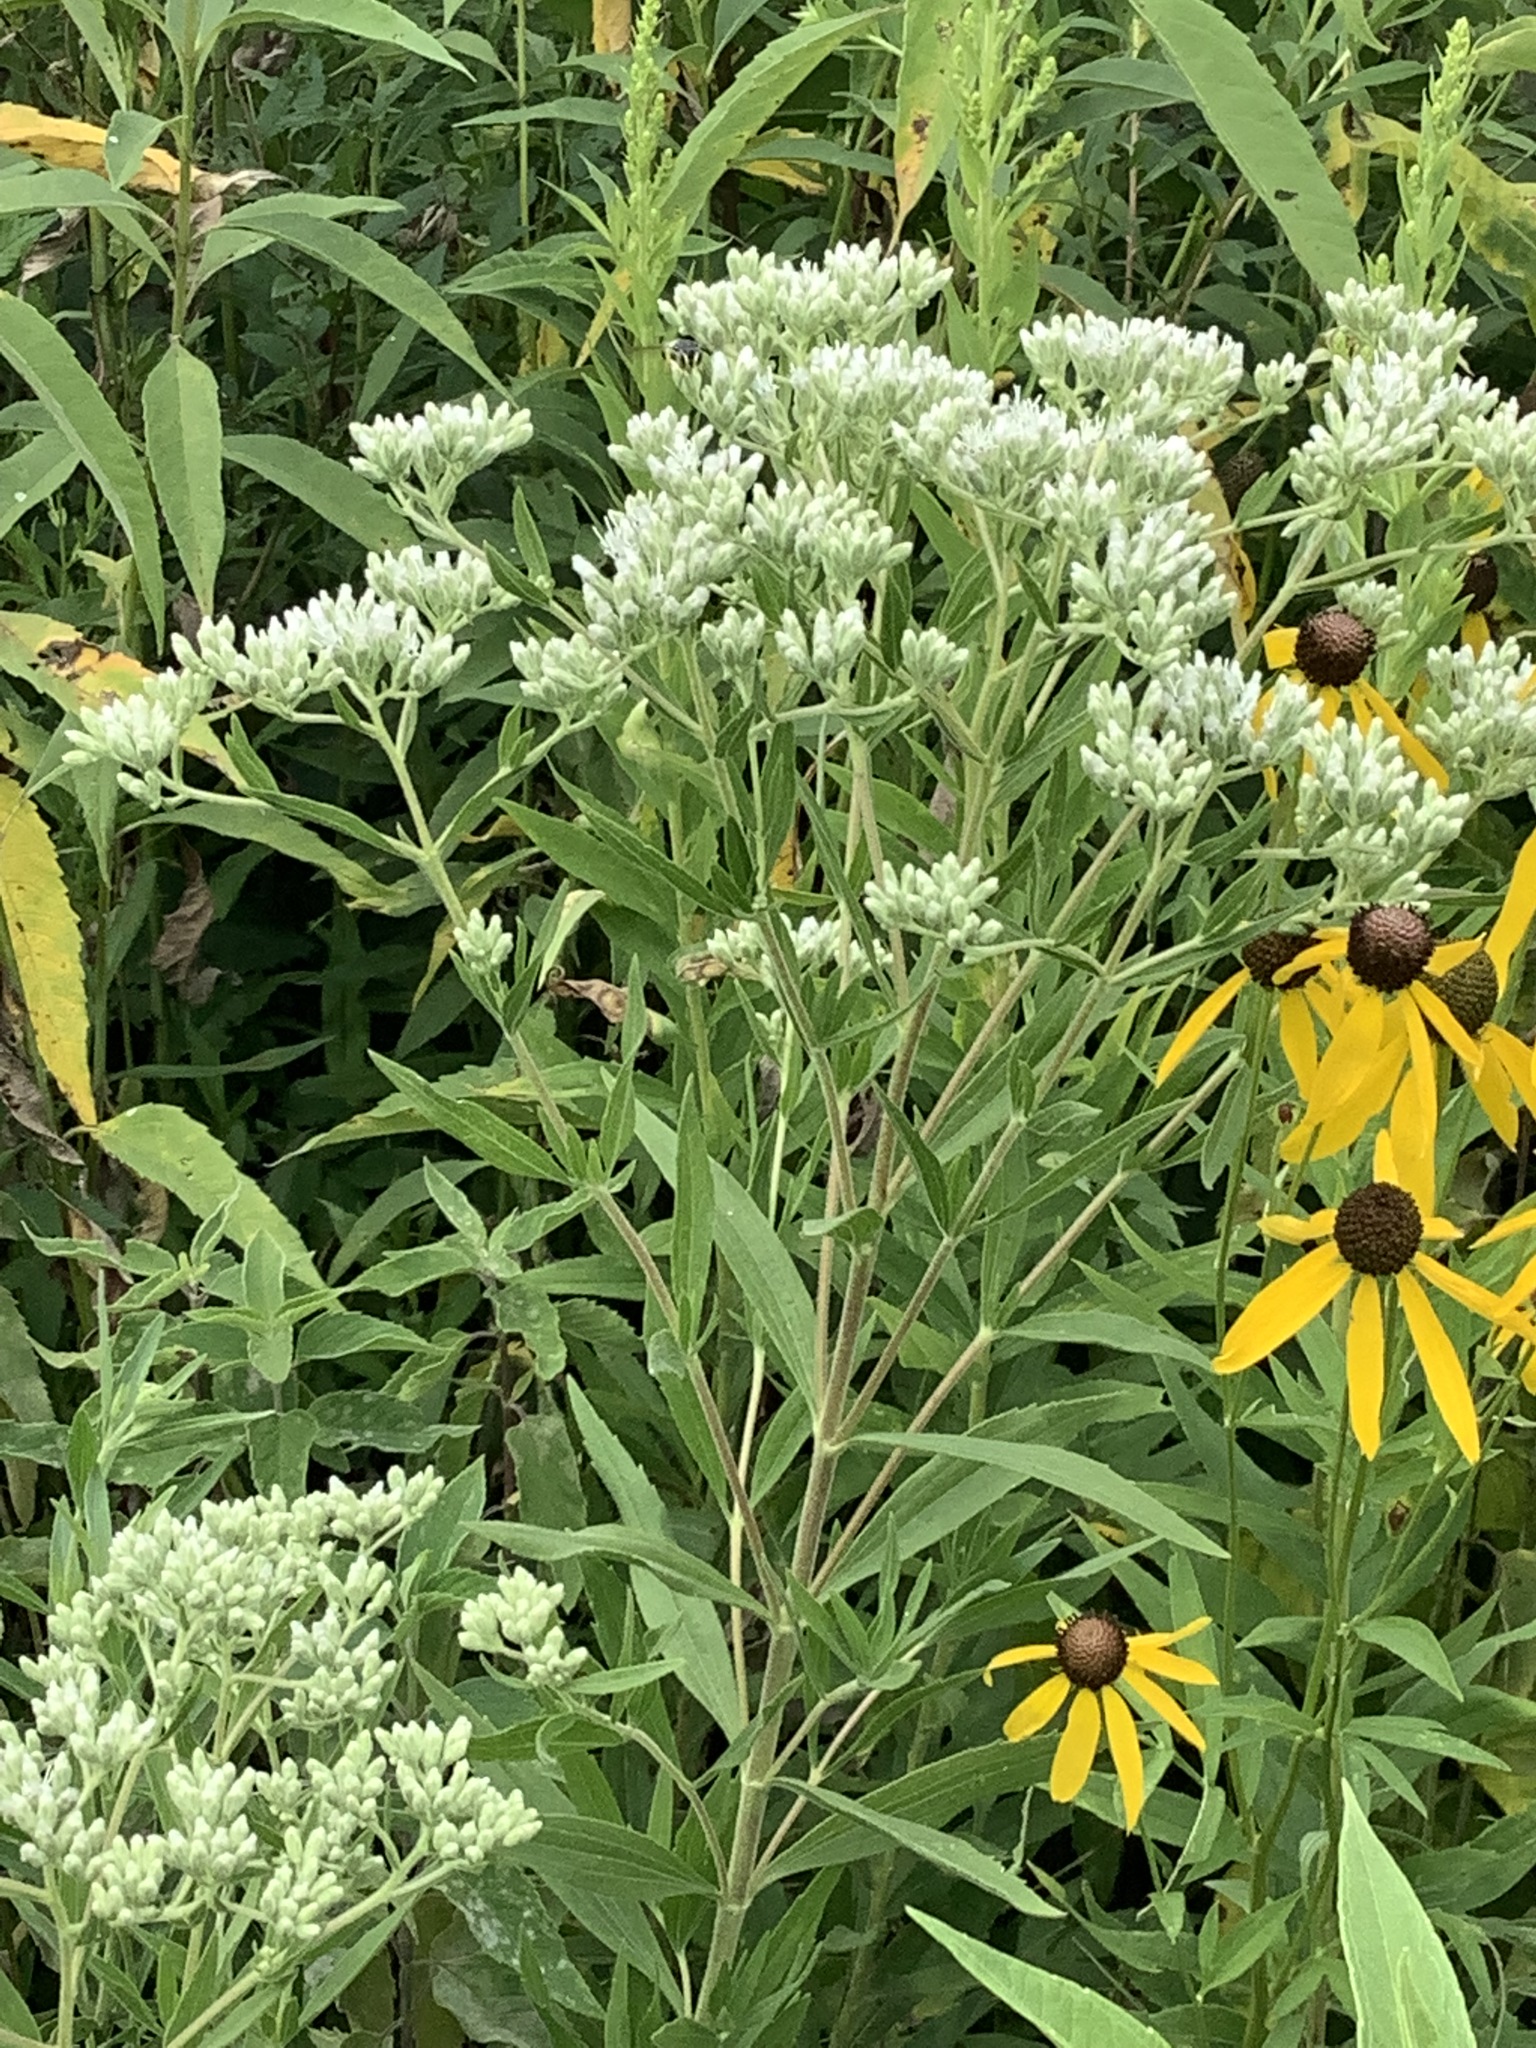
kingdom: Plantae
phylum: Tracheophyta
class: Magnoliopsida
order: Asterales
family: Asteraceae
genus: Eupatorium
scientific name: Eupatorium altissimum
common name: Tall thoroughwort
